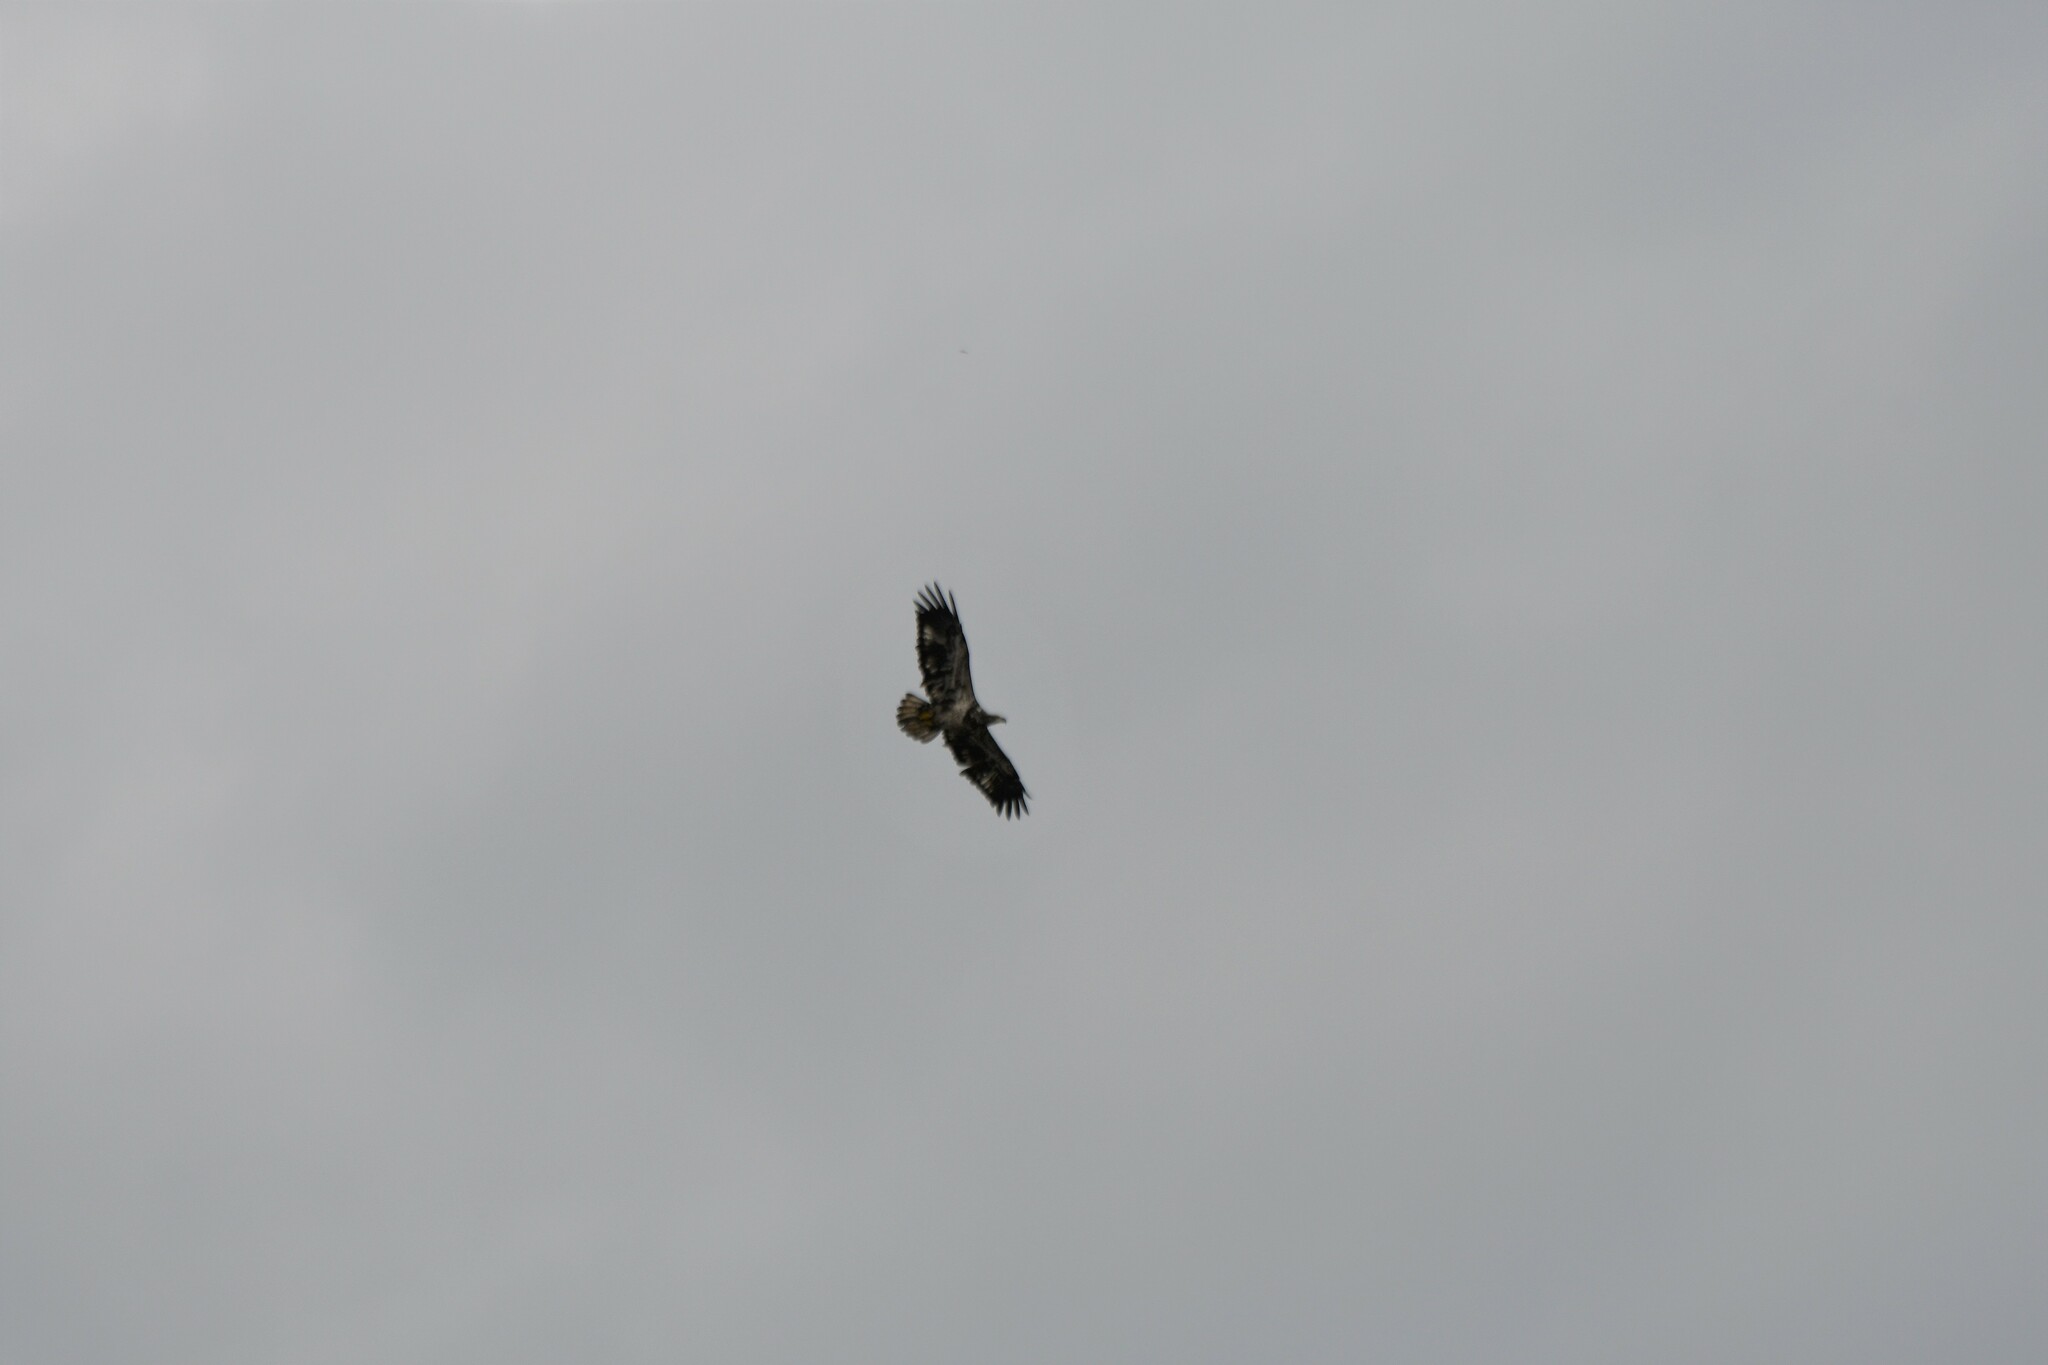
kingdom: Animalia
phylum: Chordata
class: Aves
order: Accipitriformes
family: Accipitridae
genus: Haliaeetus
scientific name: Haliaeetus leucocephalus
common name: Bald eagle
